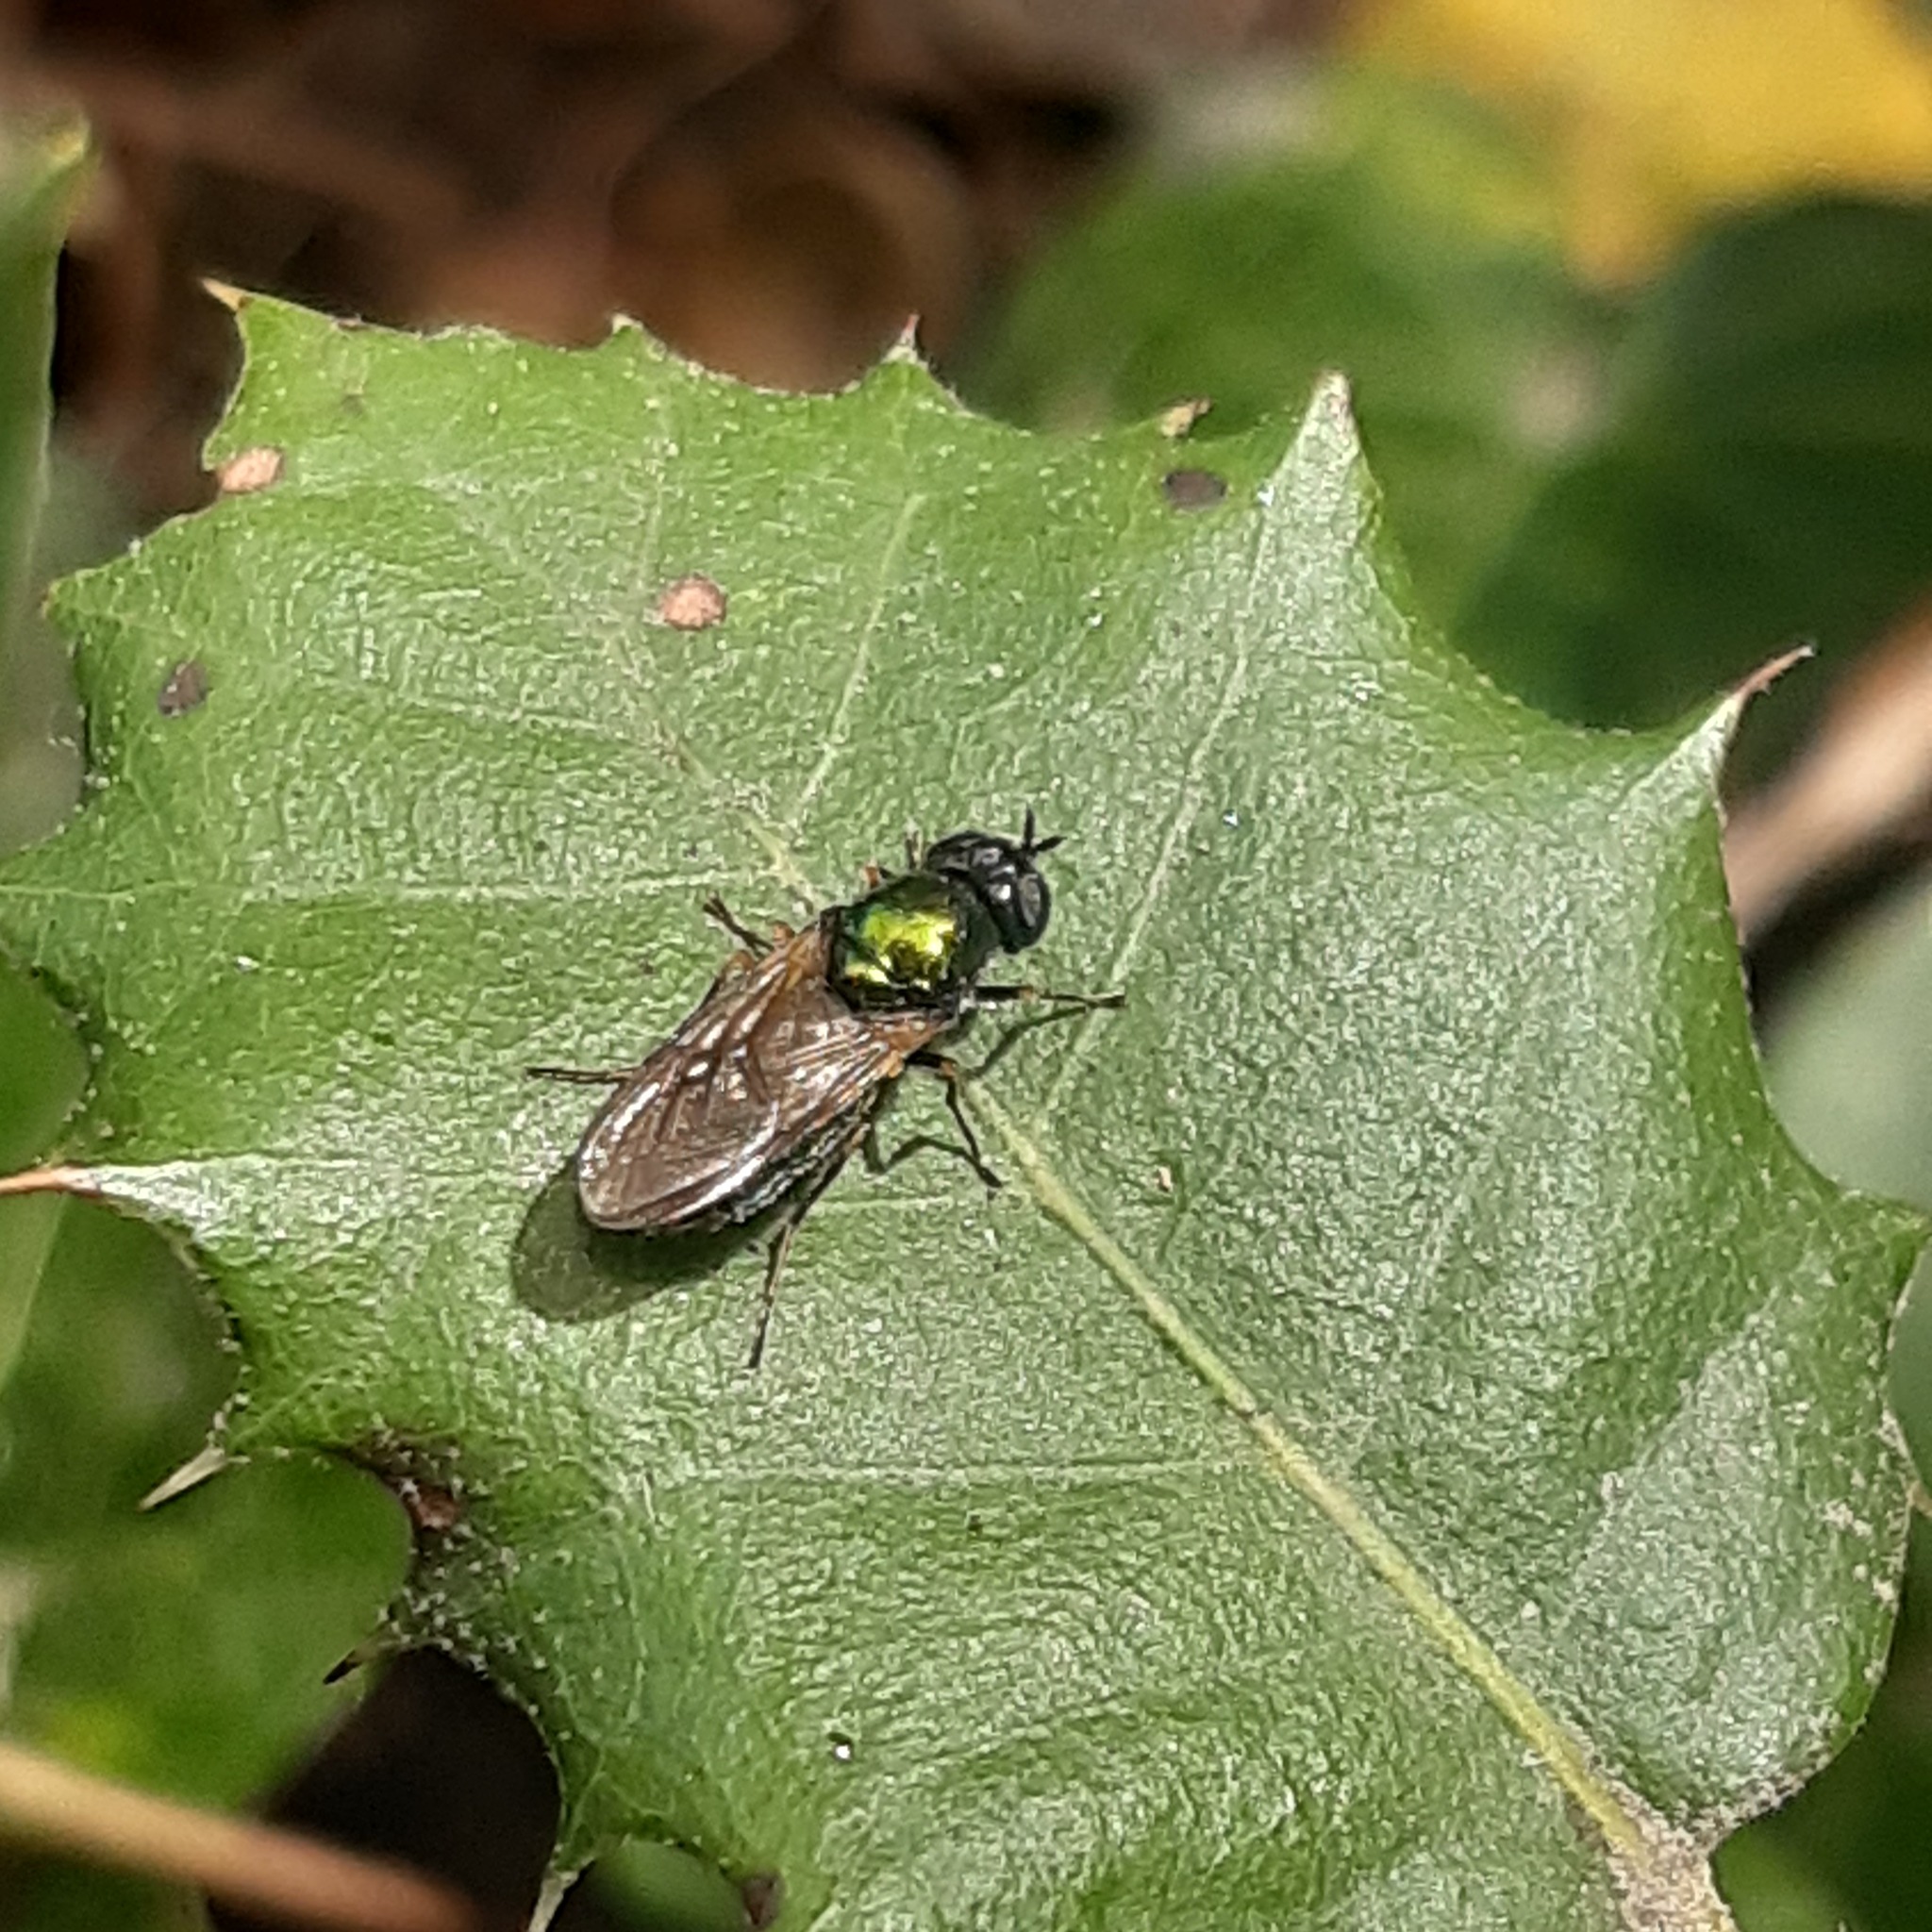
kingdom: Animalia
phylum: Arthropoda
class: Insecta
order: Diptera
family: Stratiomyidae
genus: Chloromyia
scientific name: Chloromyia formosa
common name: Soldier fly
